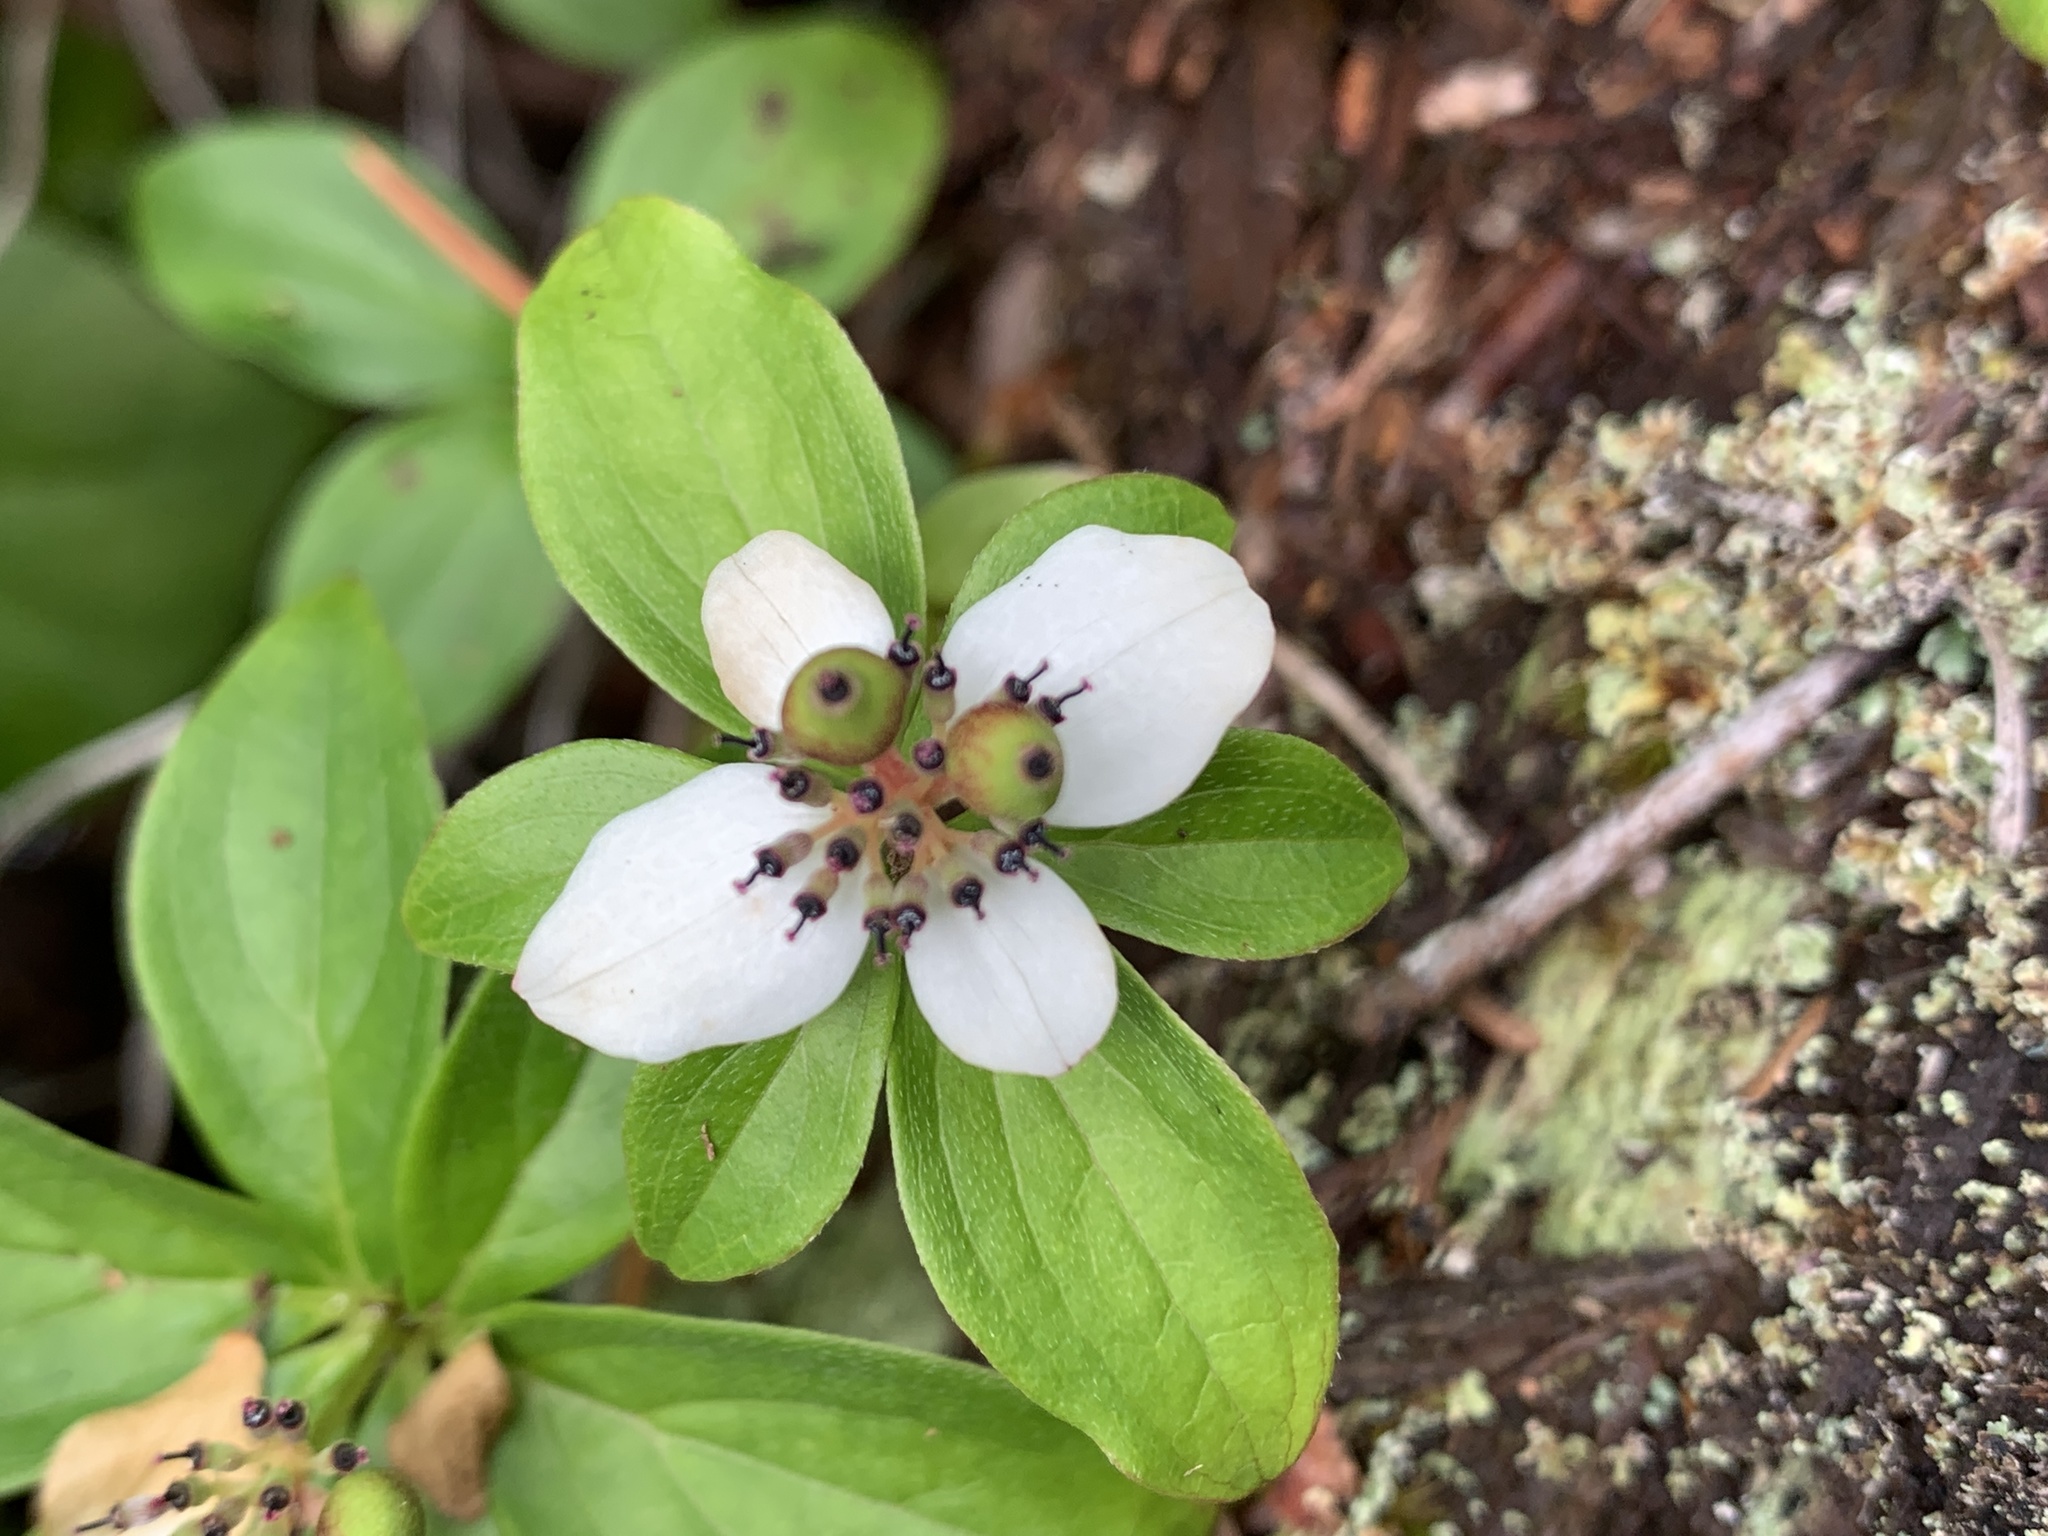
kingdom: Plantae
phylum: Tracheophyta
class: Magnoliopsida
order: Cornales
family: Cornaceae
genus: Cornus
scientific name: Cornus unalaschkensis
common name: Alaska bunchberry
